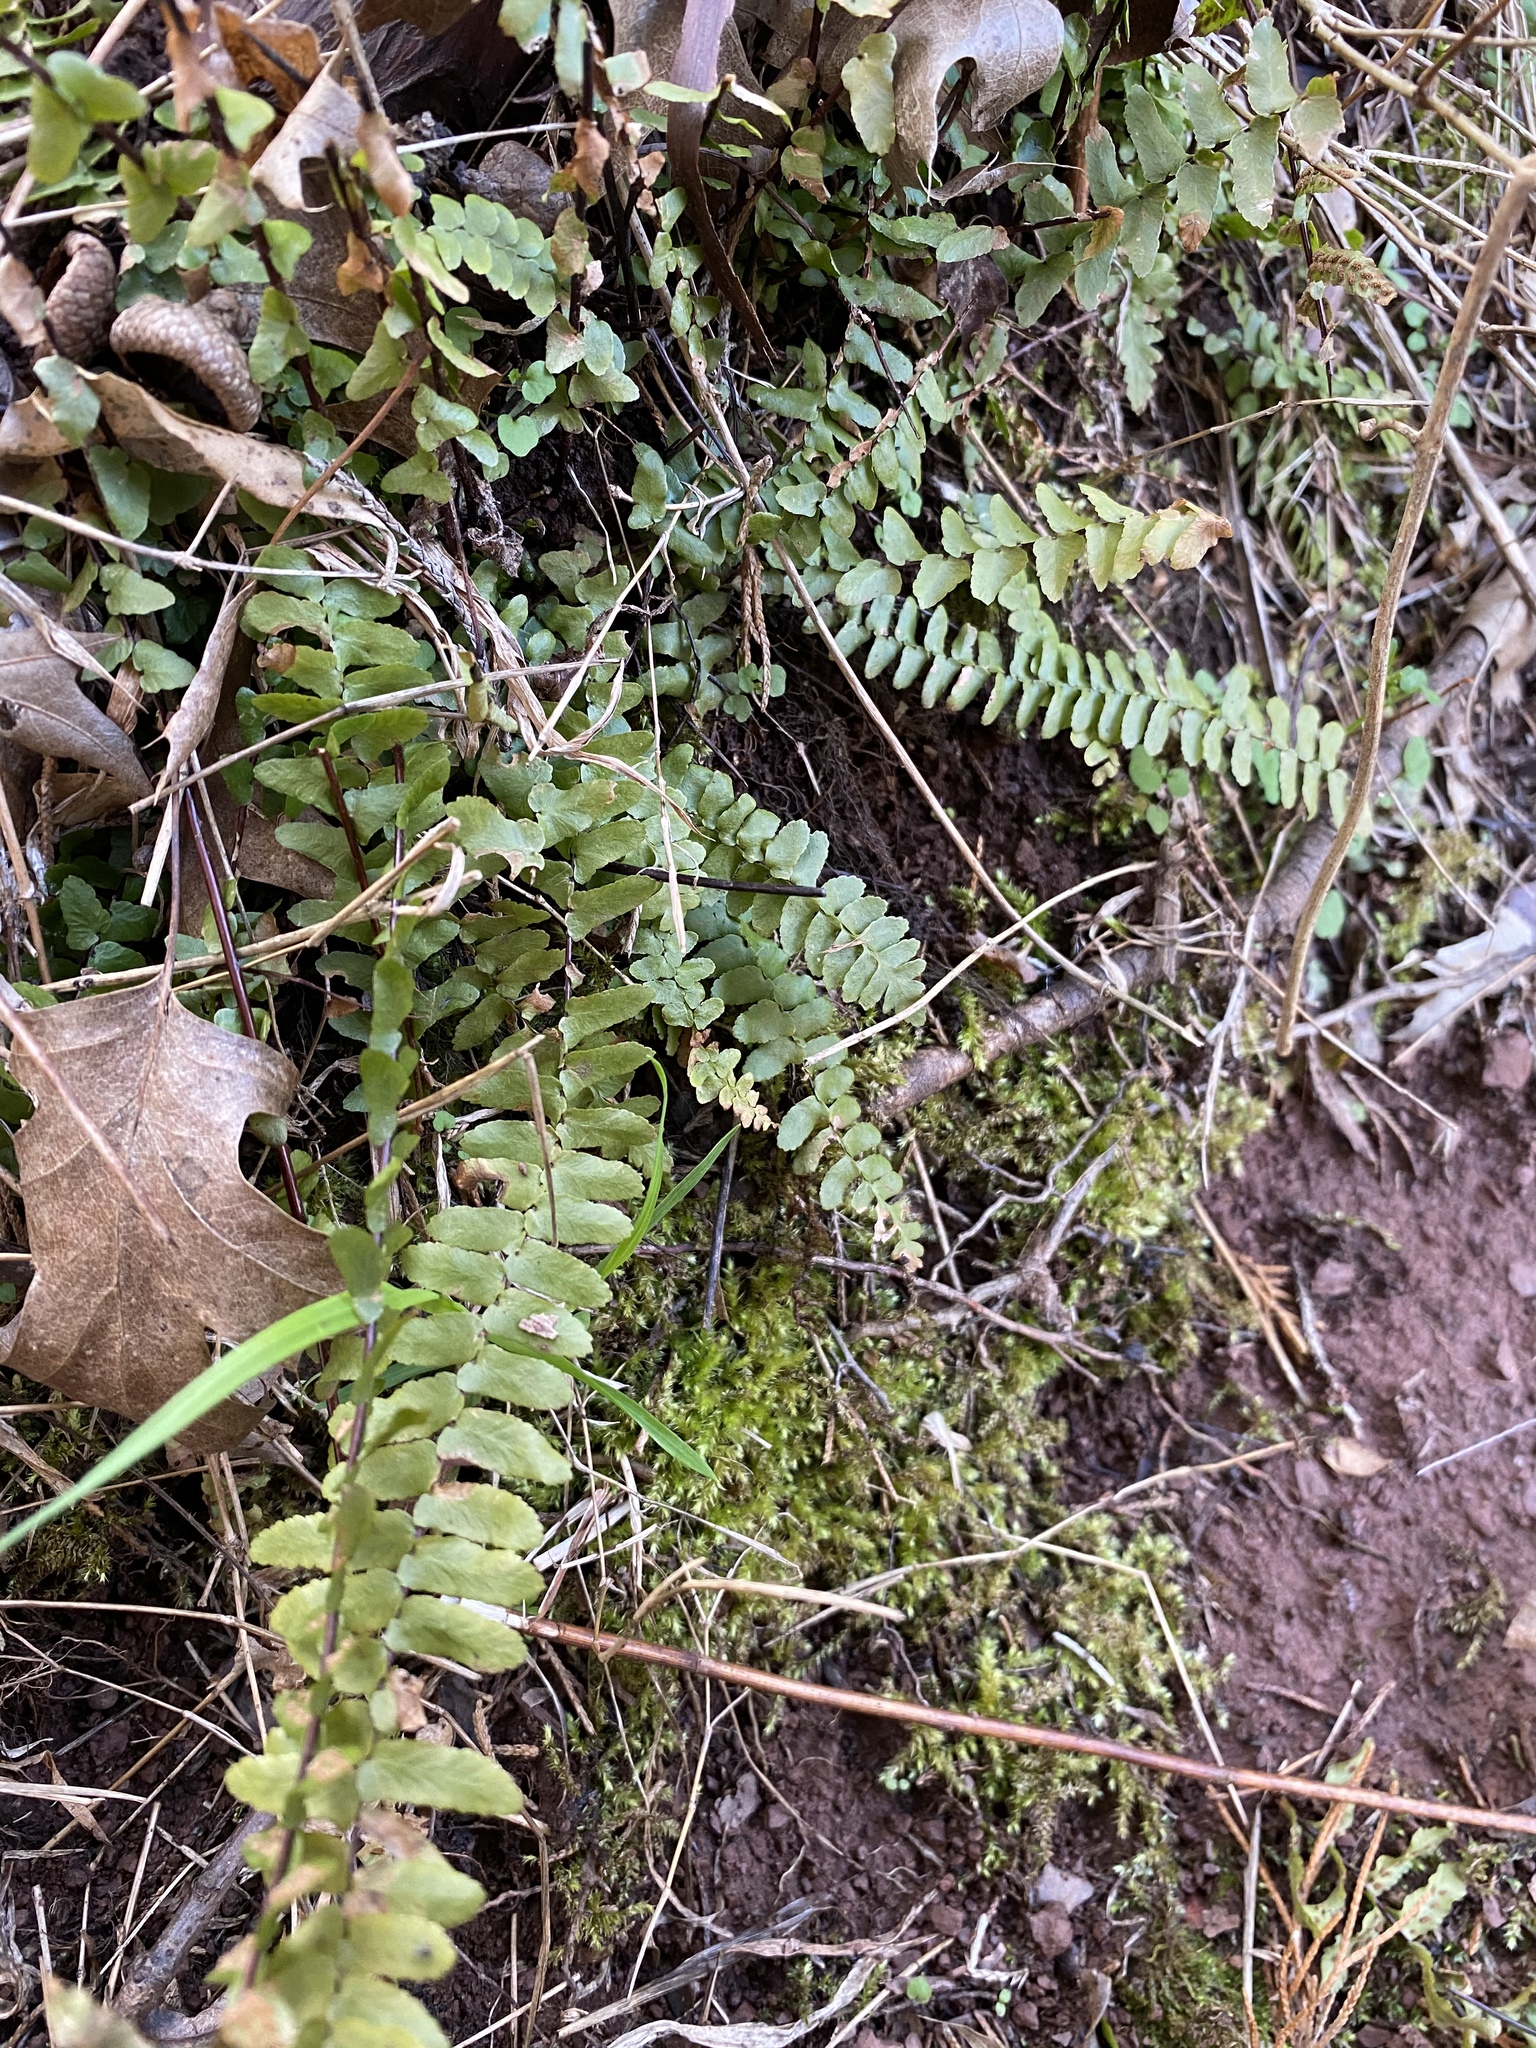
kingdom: Plantae
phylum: Tracheophyta
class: Polypodiopsida
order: Polypodiales
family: Aspleniaceae
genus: Asplenium
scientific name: Asplenium platyneuron
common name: Ebony spleenwort
